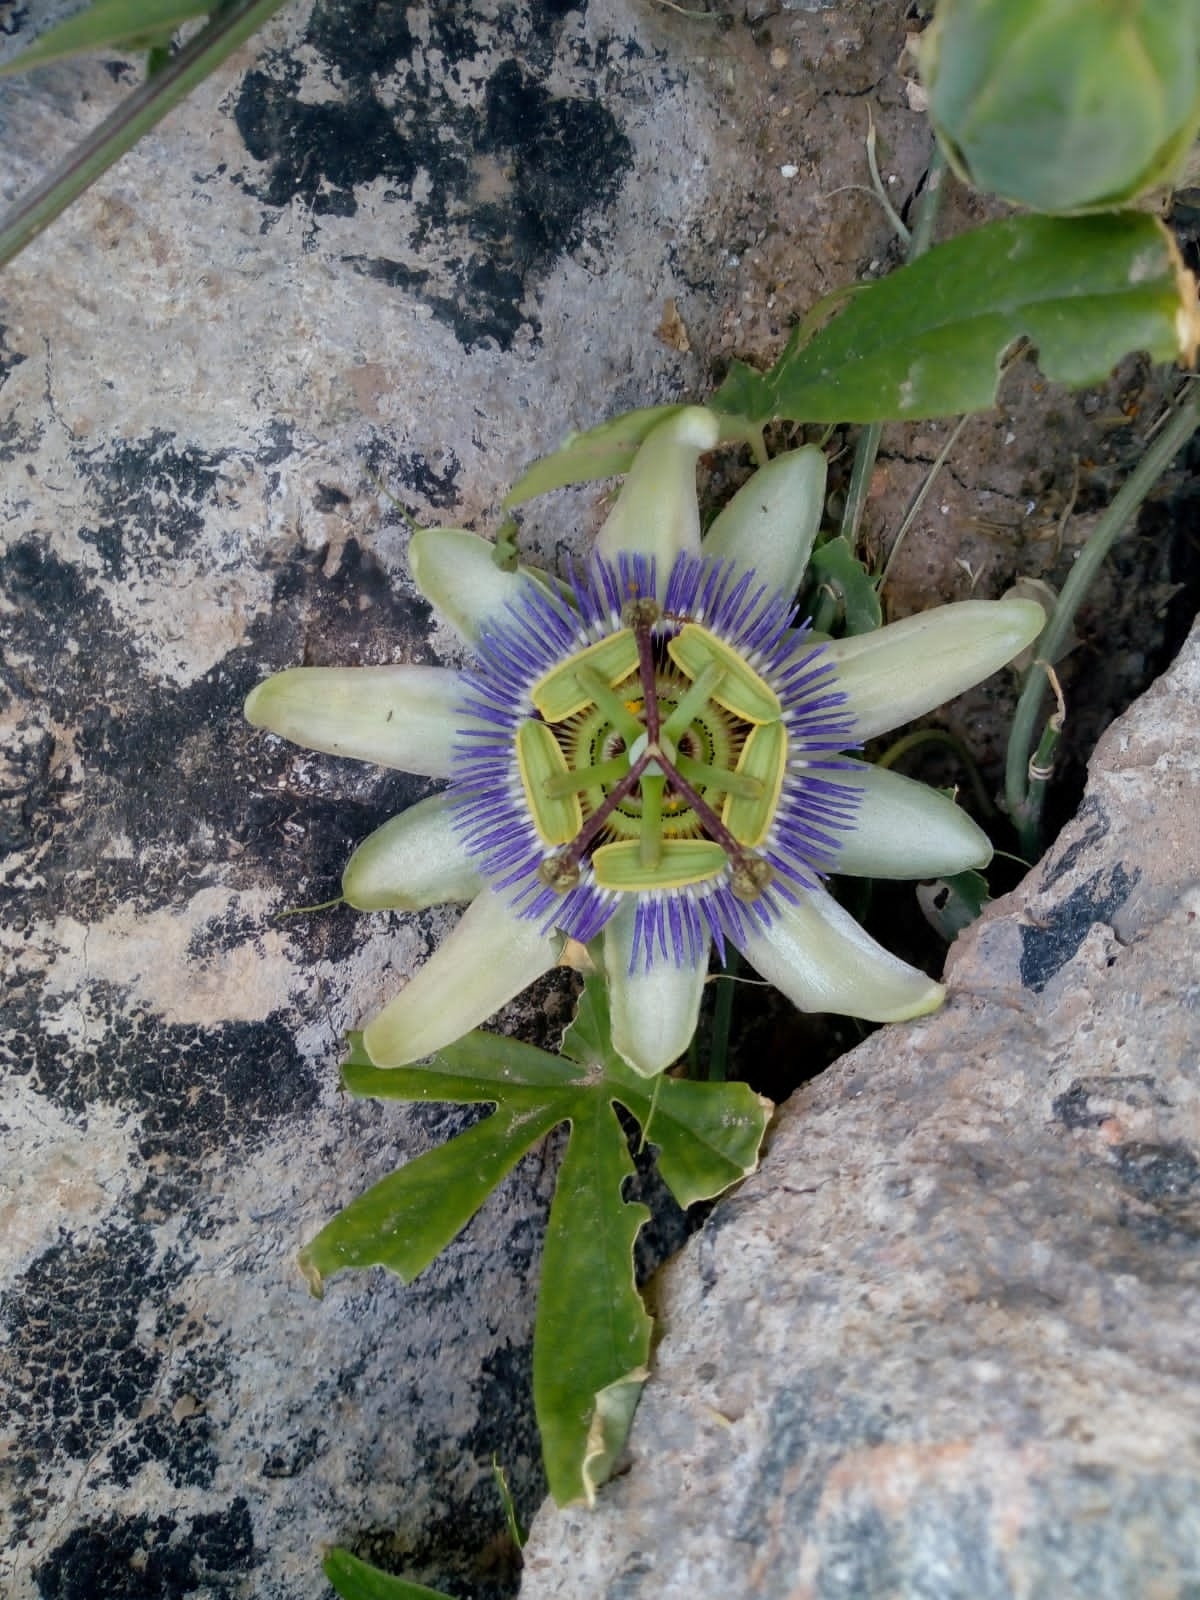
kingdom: Plantae
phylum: Tracheophyta
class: Magnoliopsida
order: Malpighiales
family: Passifloraceae
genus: Passiflora
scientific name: Passiflora caerulea
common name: Blue passionflower
